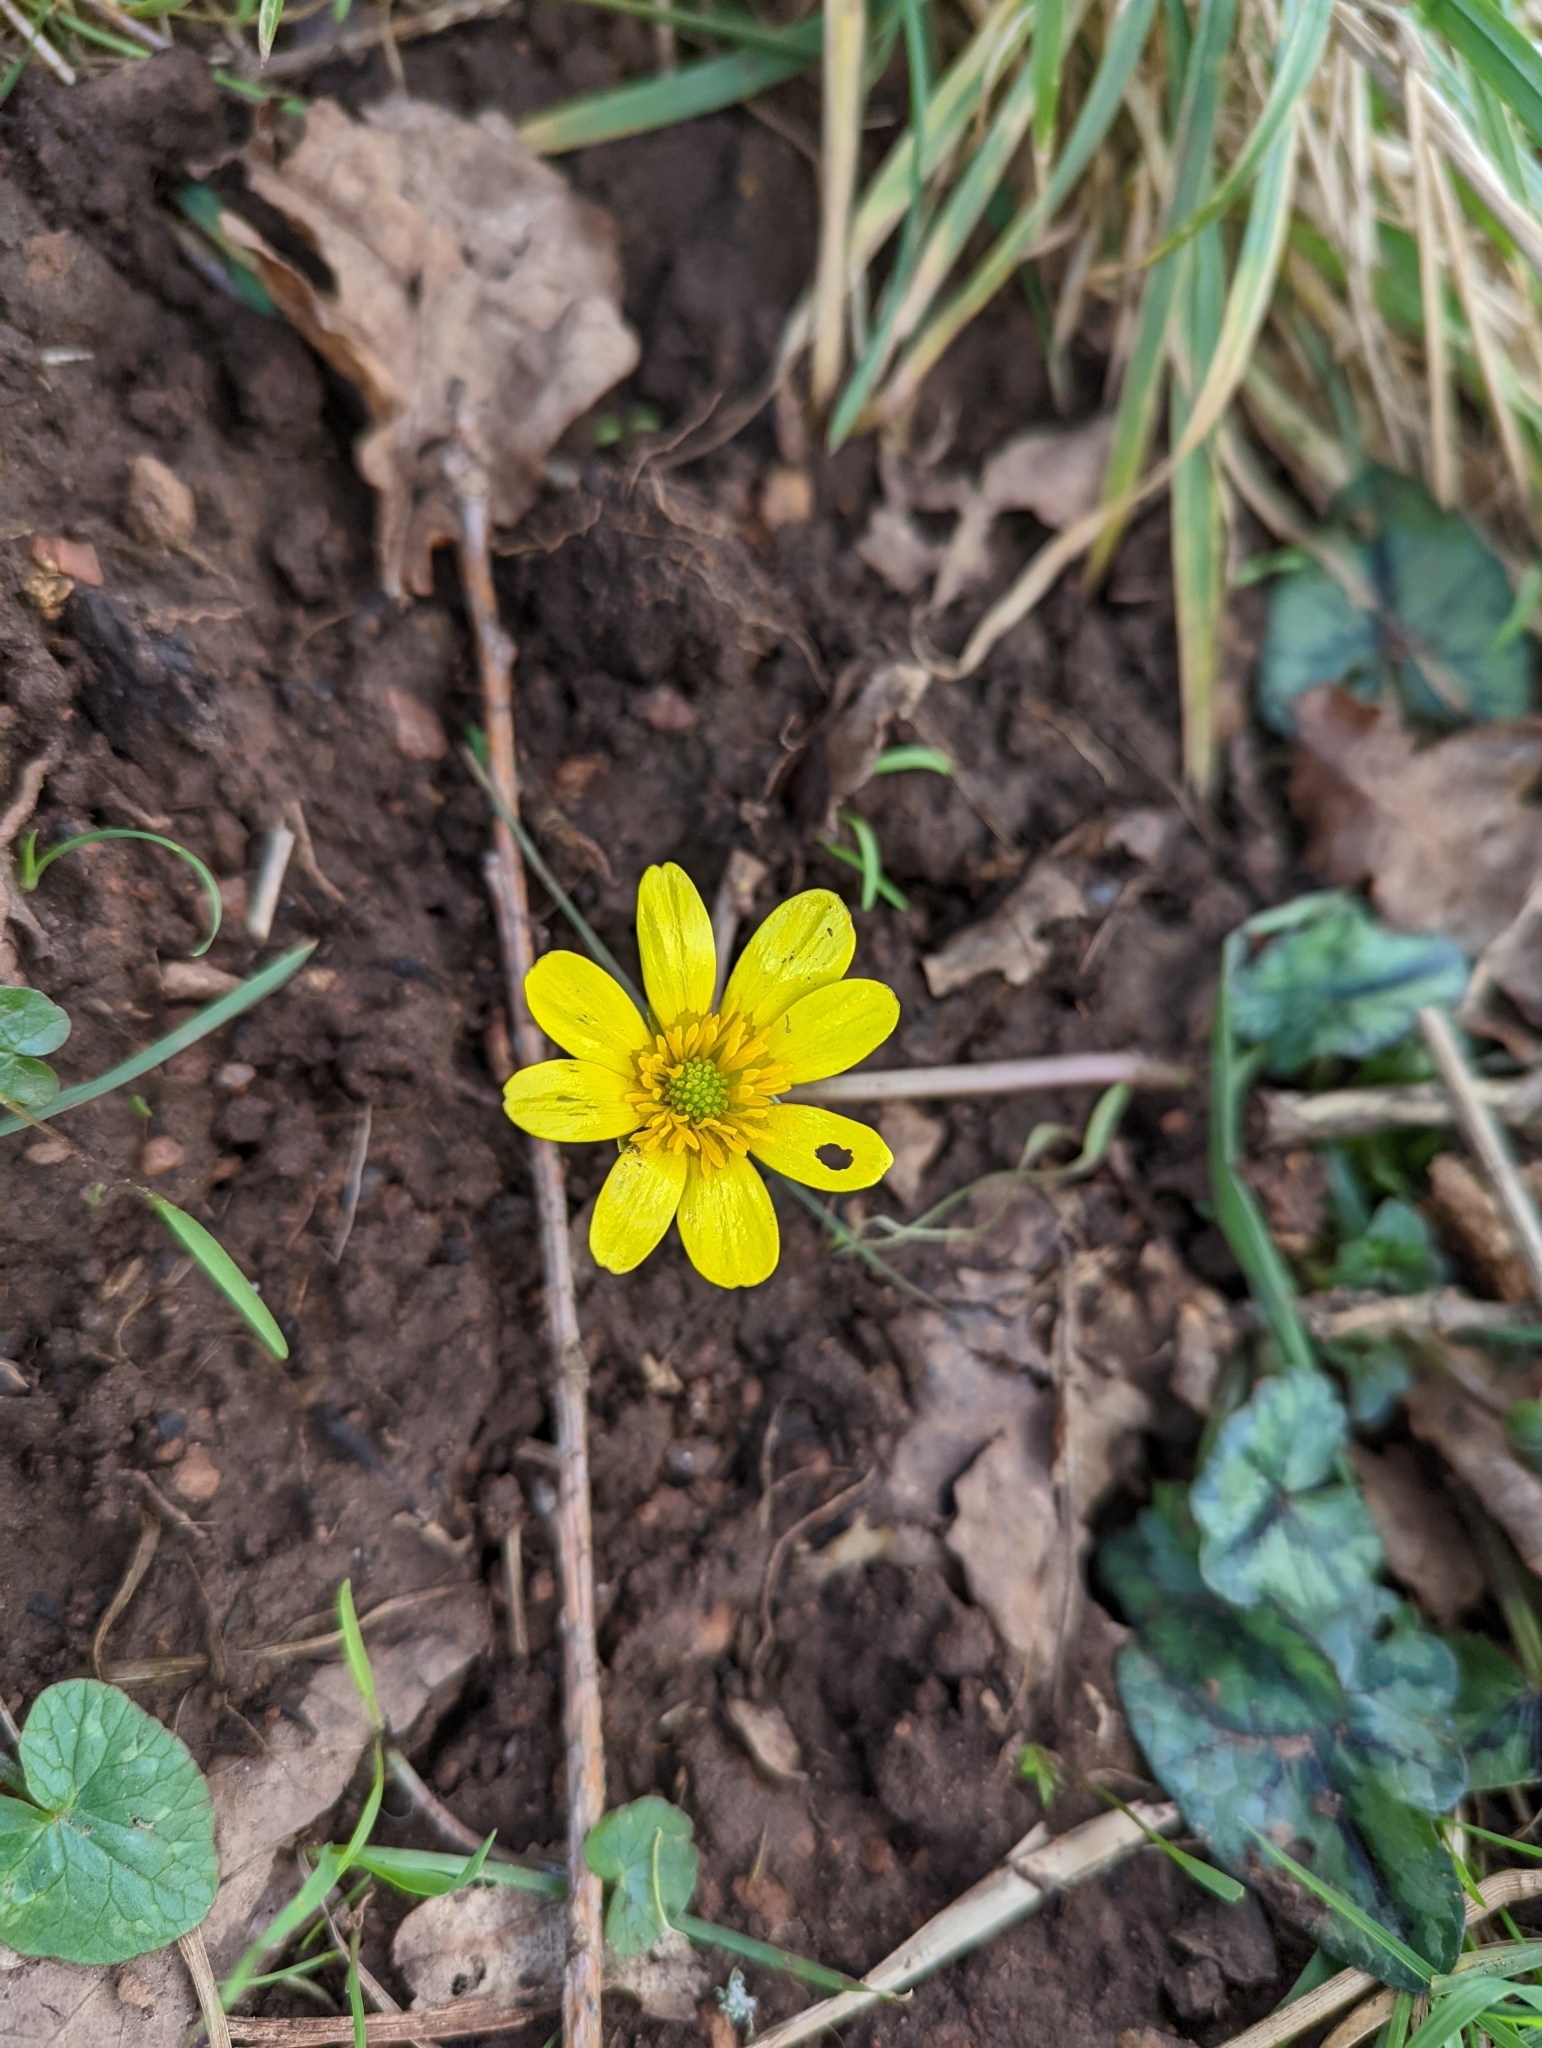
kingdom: Plantae
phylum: Tracheophyta
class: Magnoliopsida
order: Ranunculales
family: Ranunculaceae
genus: Ficaria
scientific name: Ficaria verna
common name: Lesser celandine
